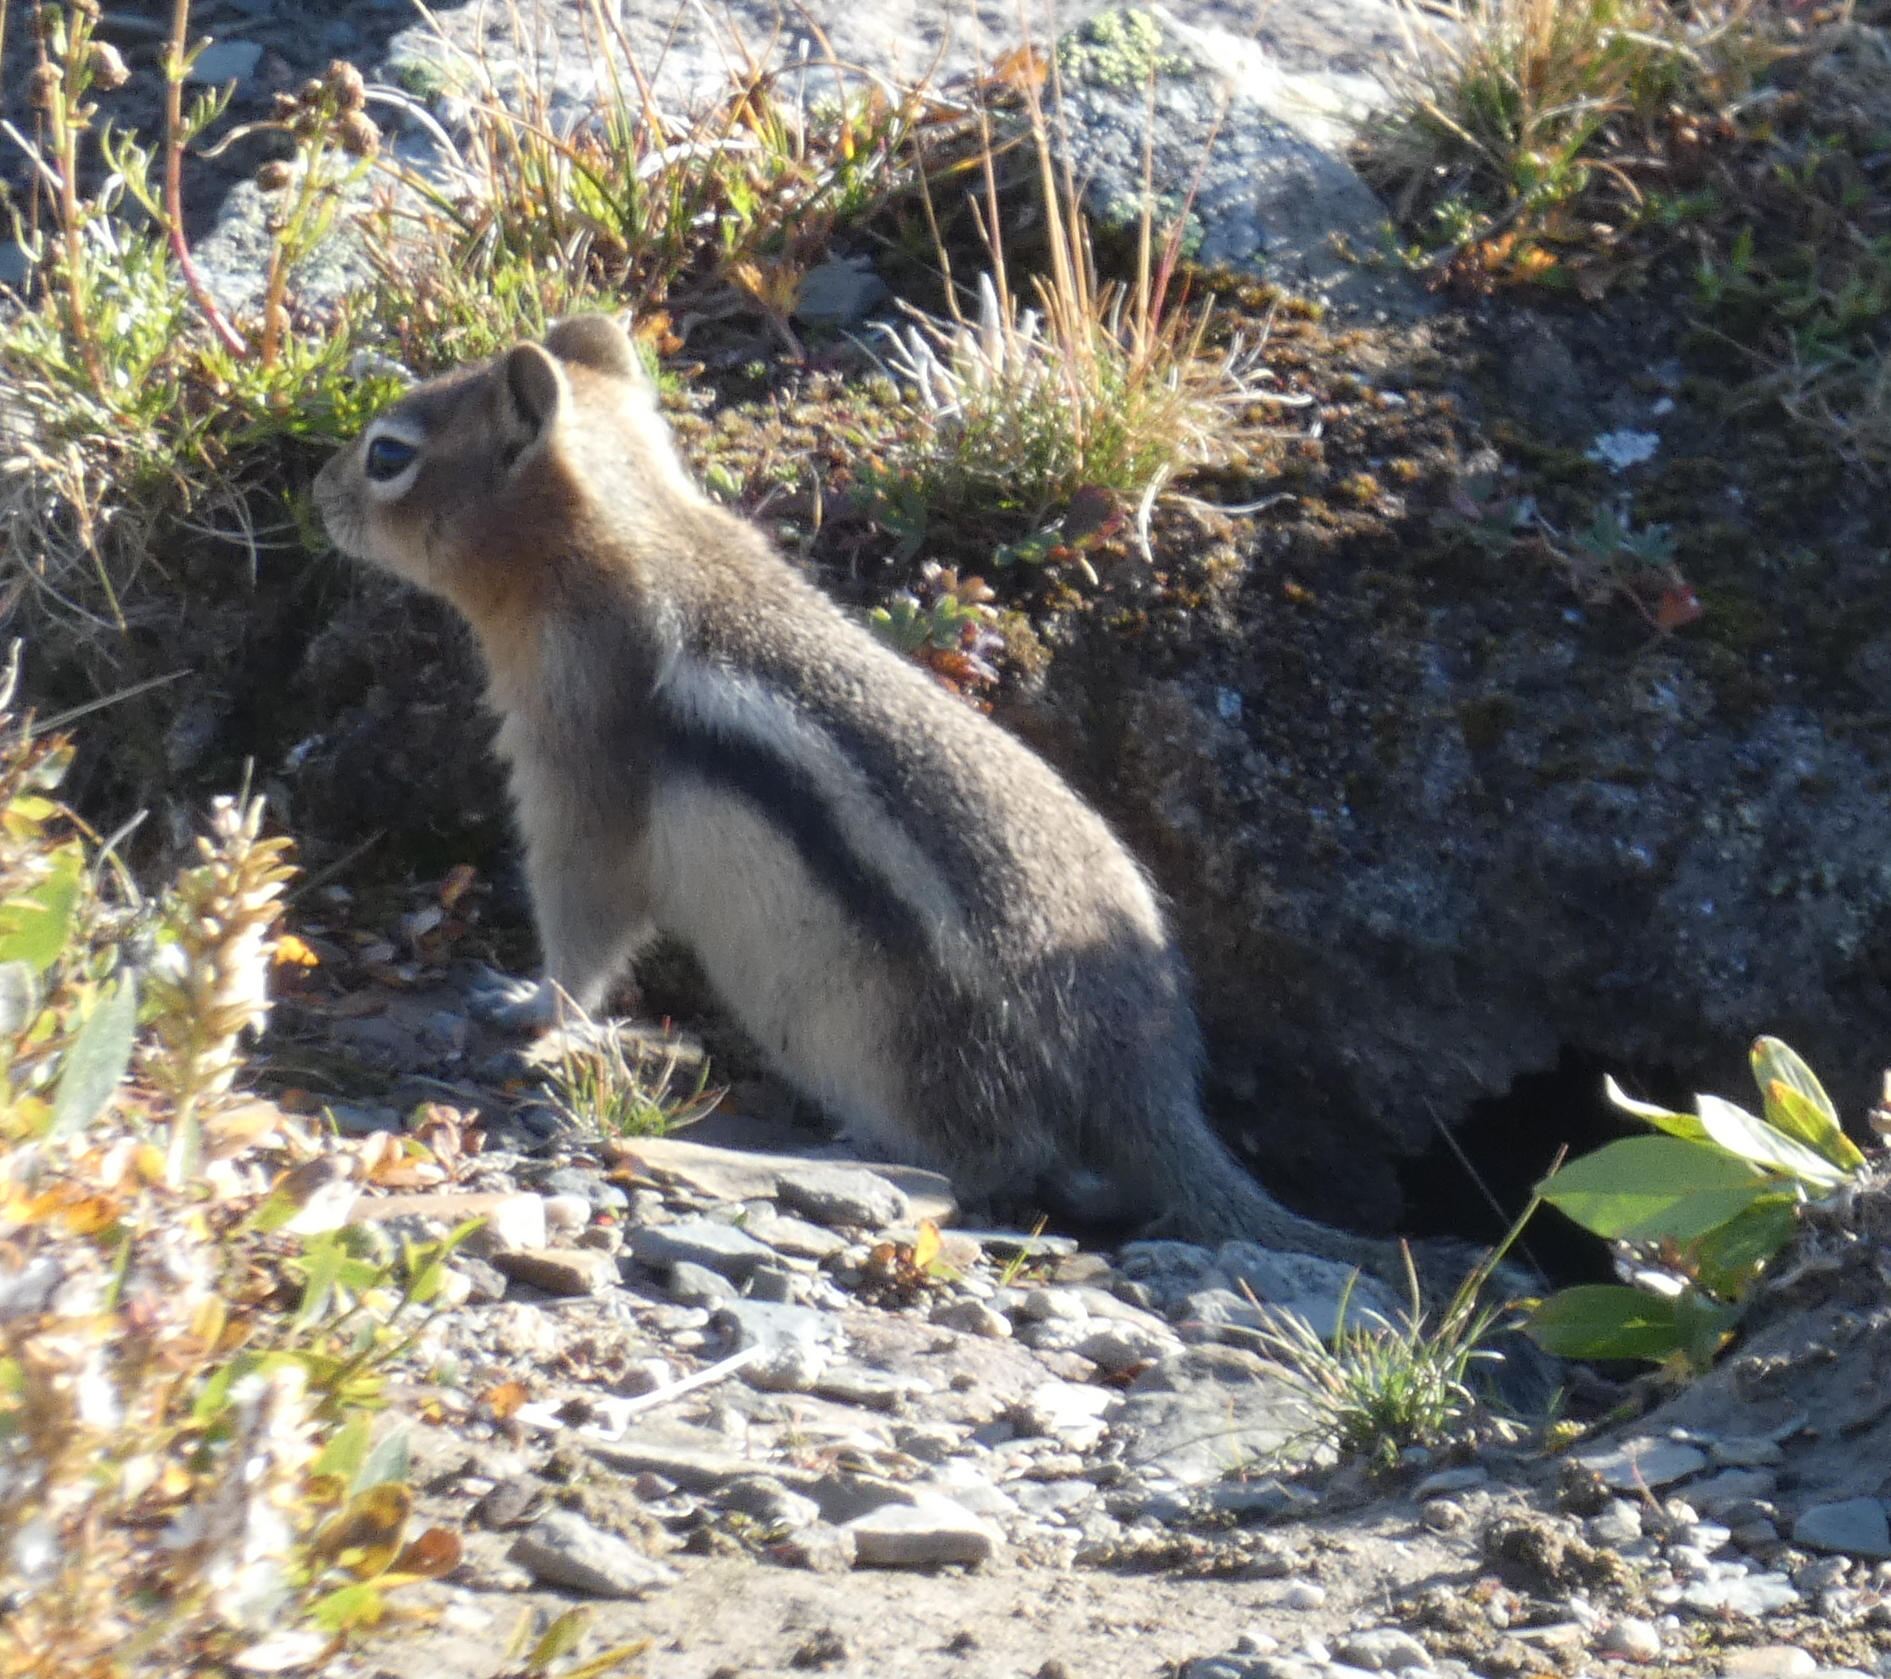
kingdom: Animalia
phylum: Chordata
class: Mammalia
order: Rodentia
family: Sciuridae
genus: Callospermophilus
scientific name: Callospermophilus lateralis
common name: Golden-mantled ground squirrel
